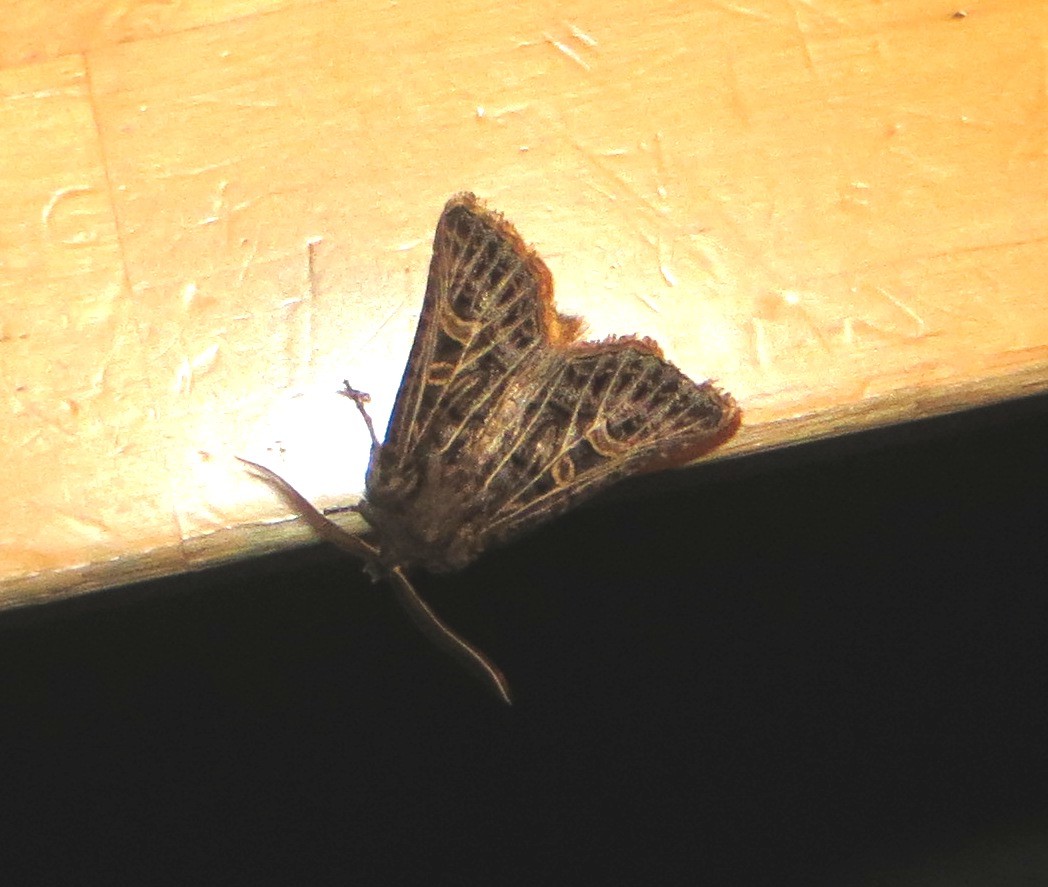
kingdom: Animalia
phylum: Arthropoda
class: Insecta
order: Lepidoptera
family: Noctuidae
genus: Tholera
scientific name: Tholera decimalis
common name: Feathered gothic
